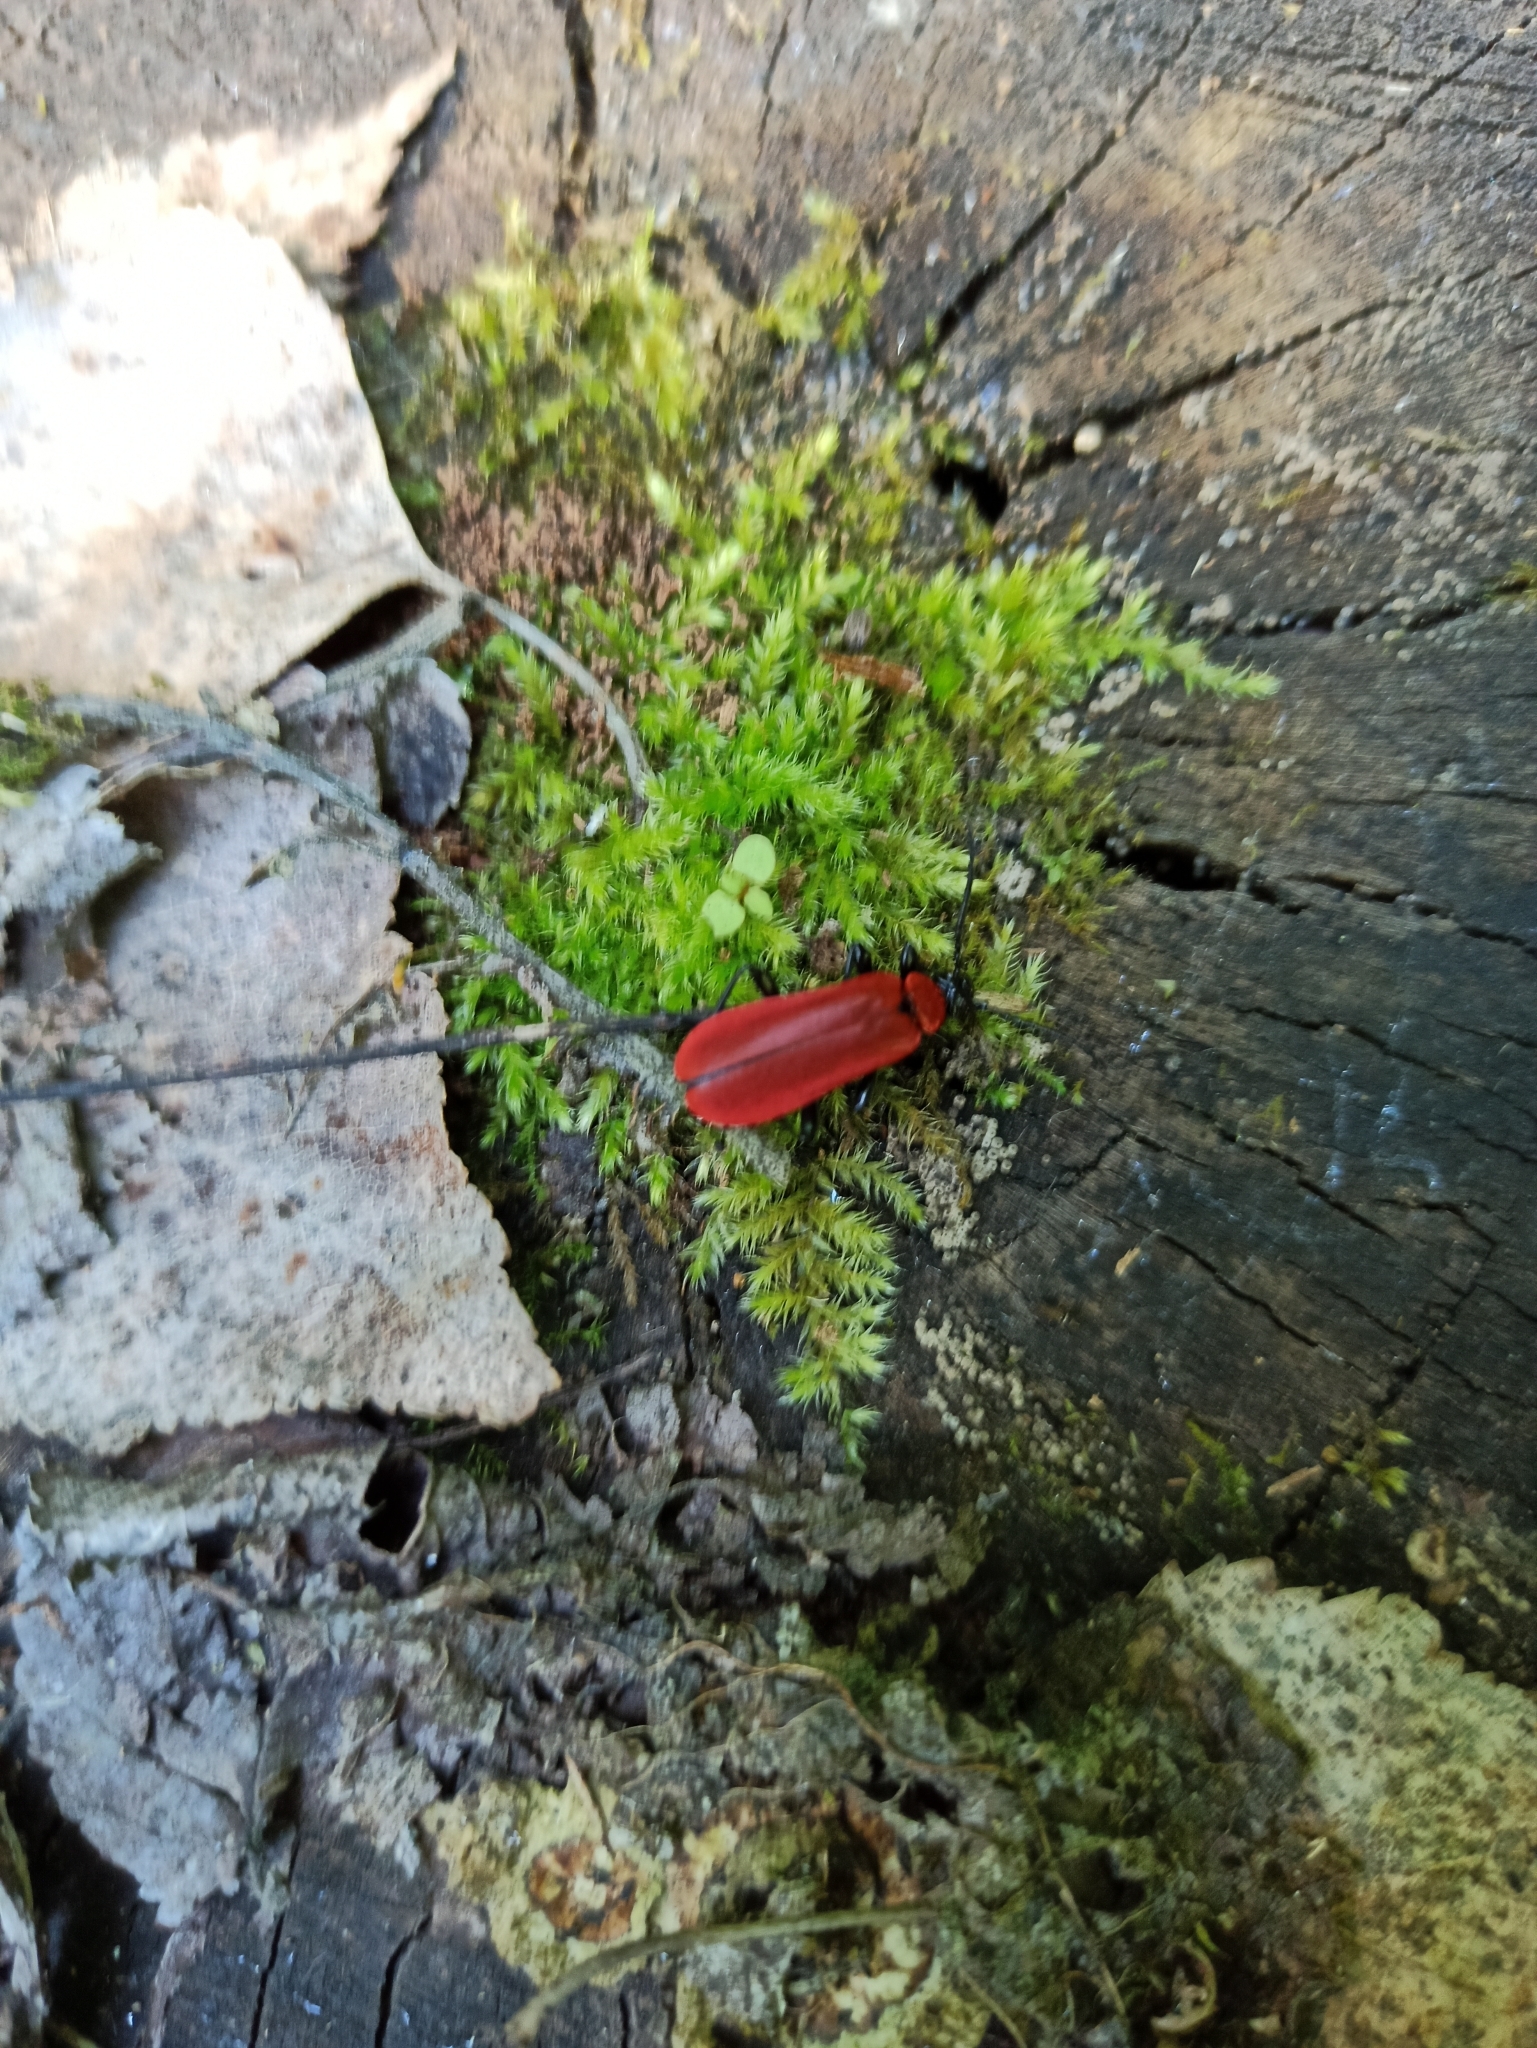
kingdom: Animalia
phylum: Arthropoda
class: Insecta
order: Coleoptera
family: Pyrochroidae
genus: Pyrochroa
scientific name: Pyrochroa coccinea
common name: Black-headed cardinal beetle
